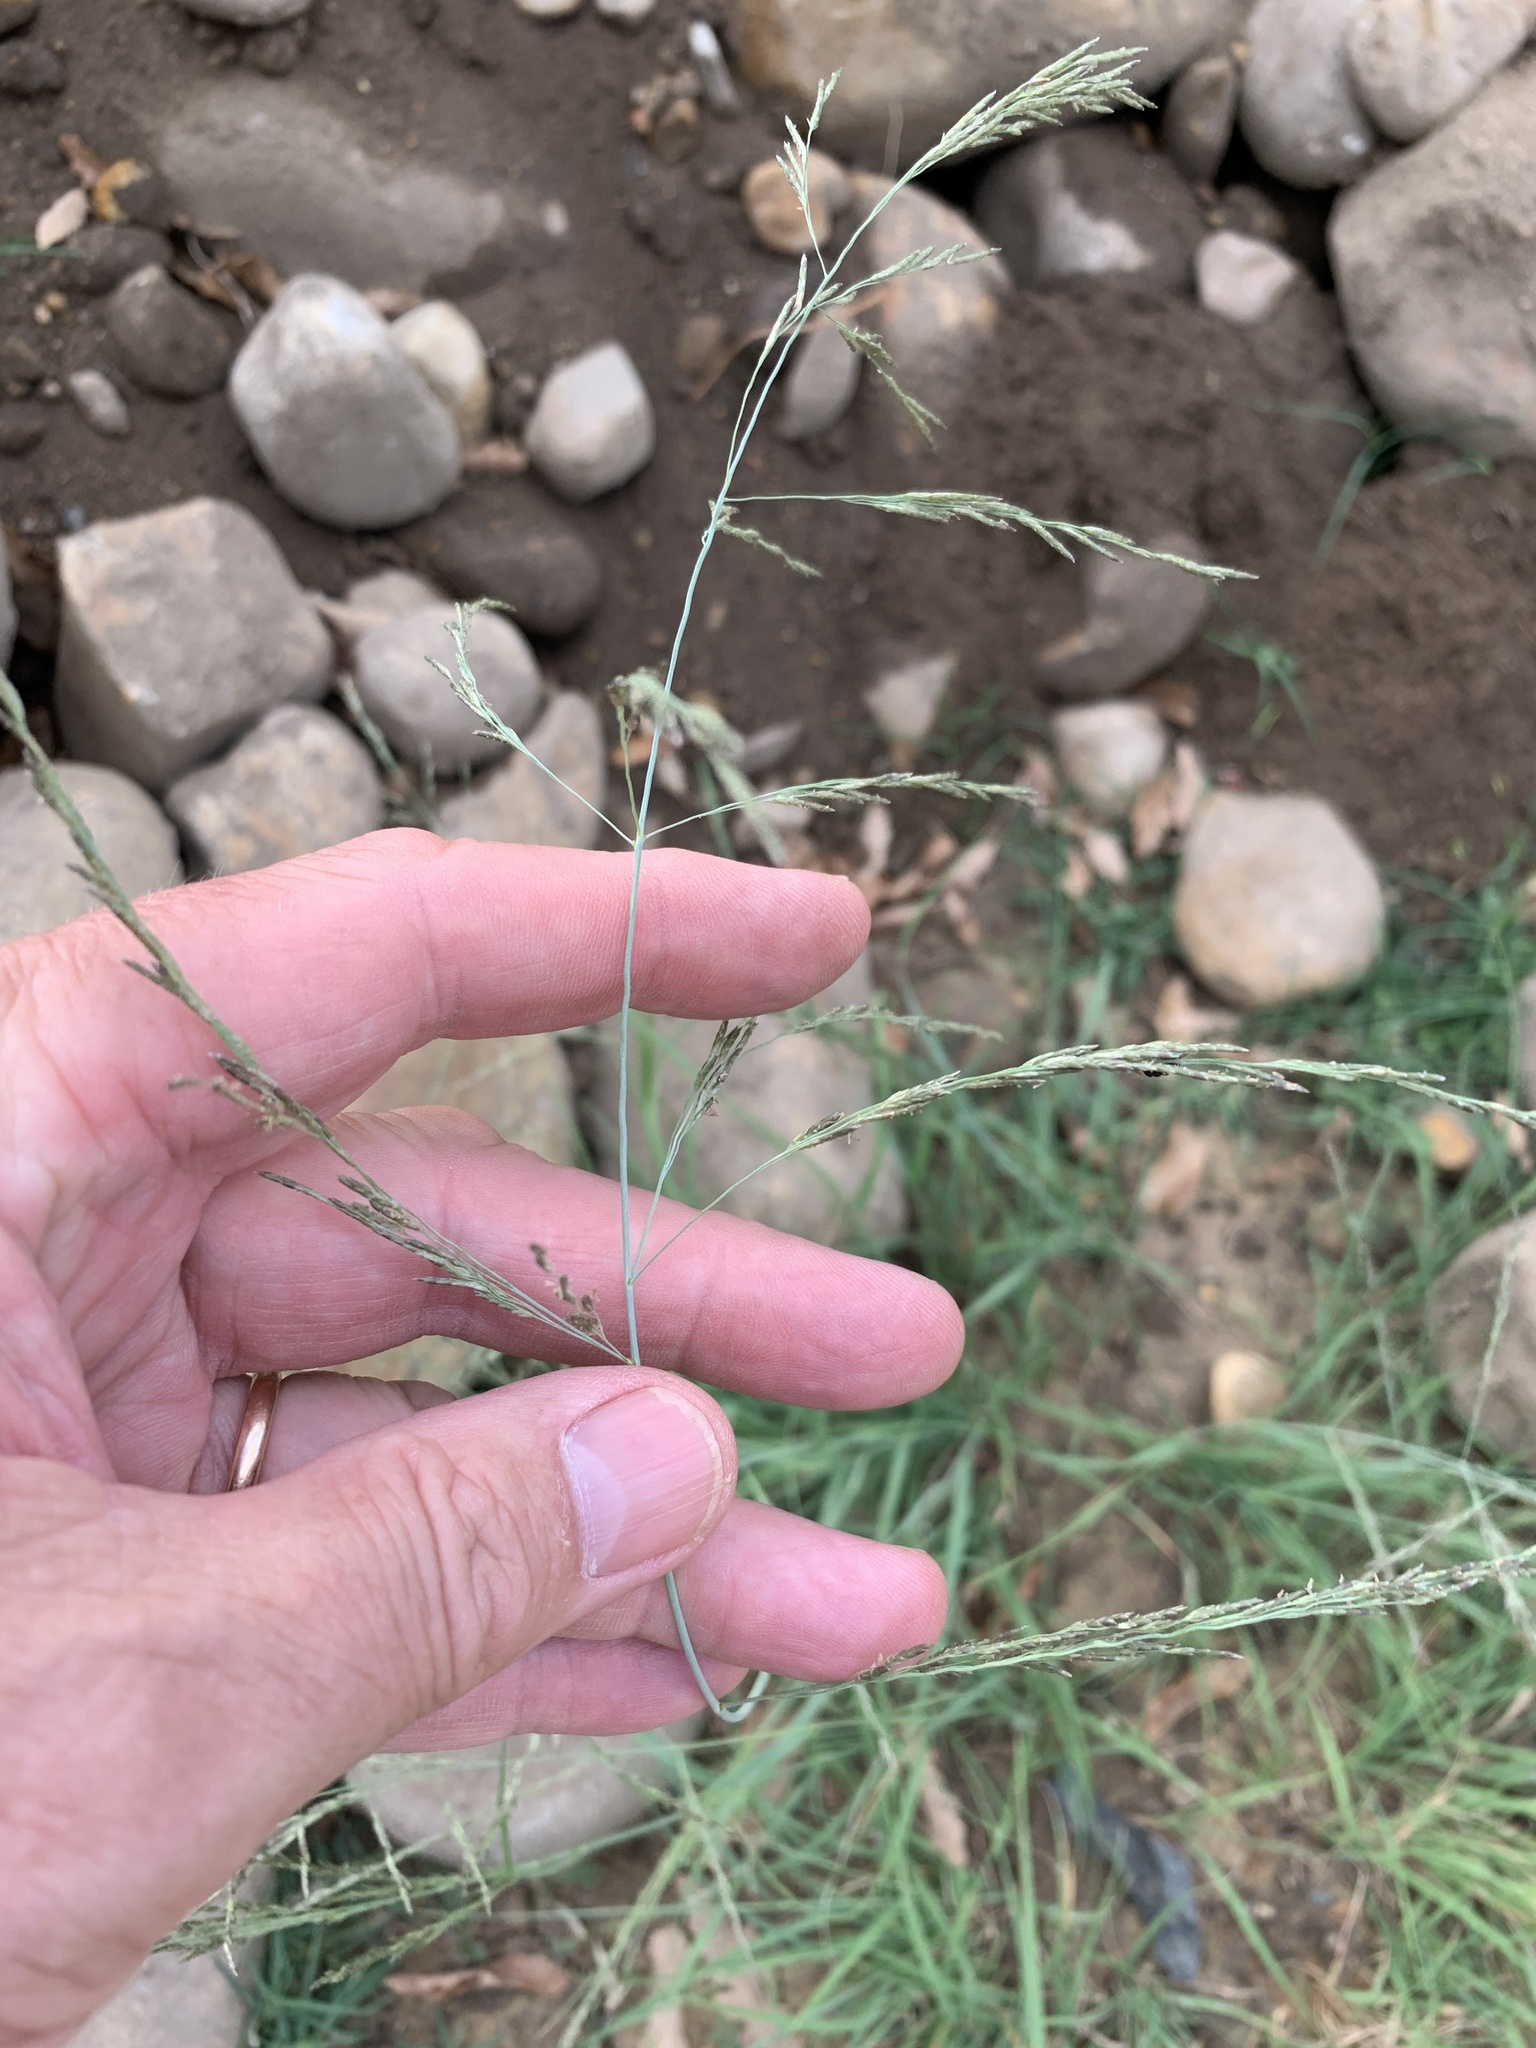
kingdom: Plantae
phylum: Tracheophyta
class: Liliopsida
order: Poales
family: Poaceae
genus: Eragrostis
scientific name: Eragrostis curvula
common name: African love-grass
